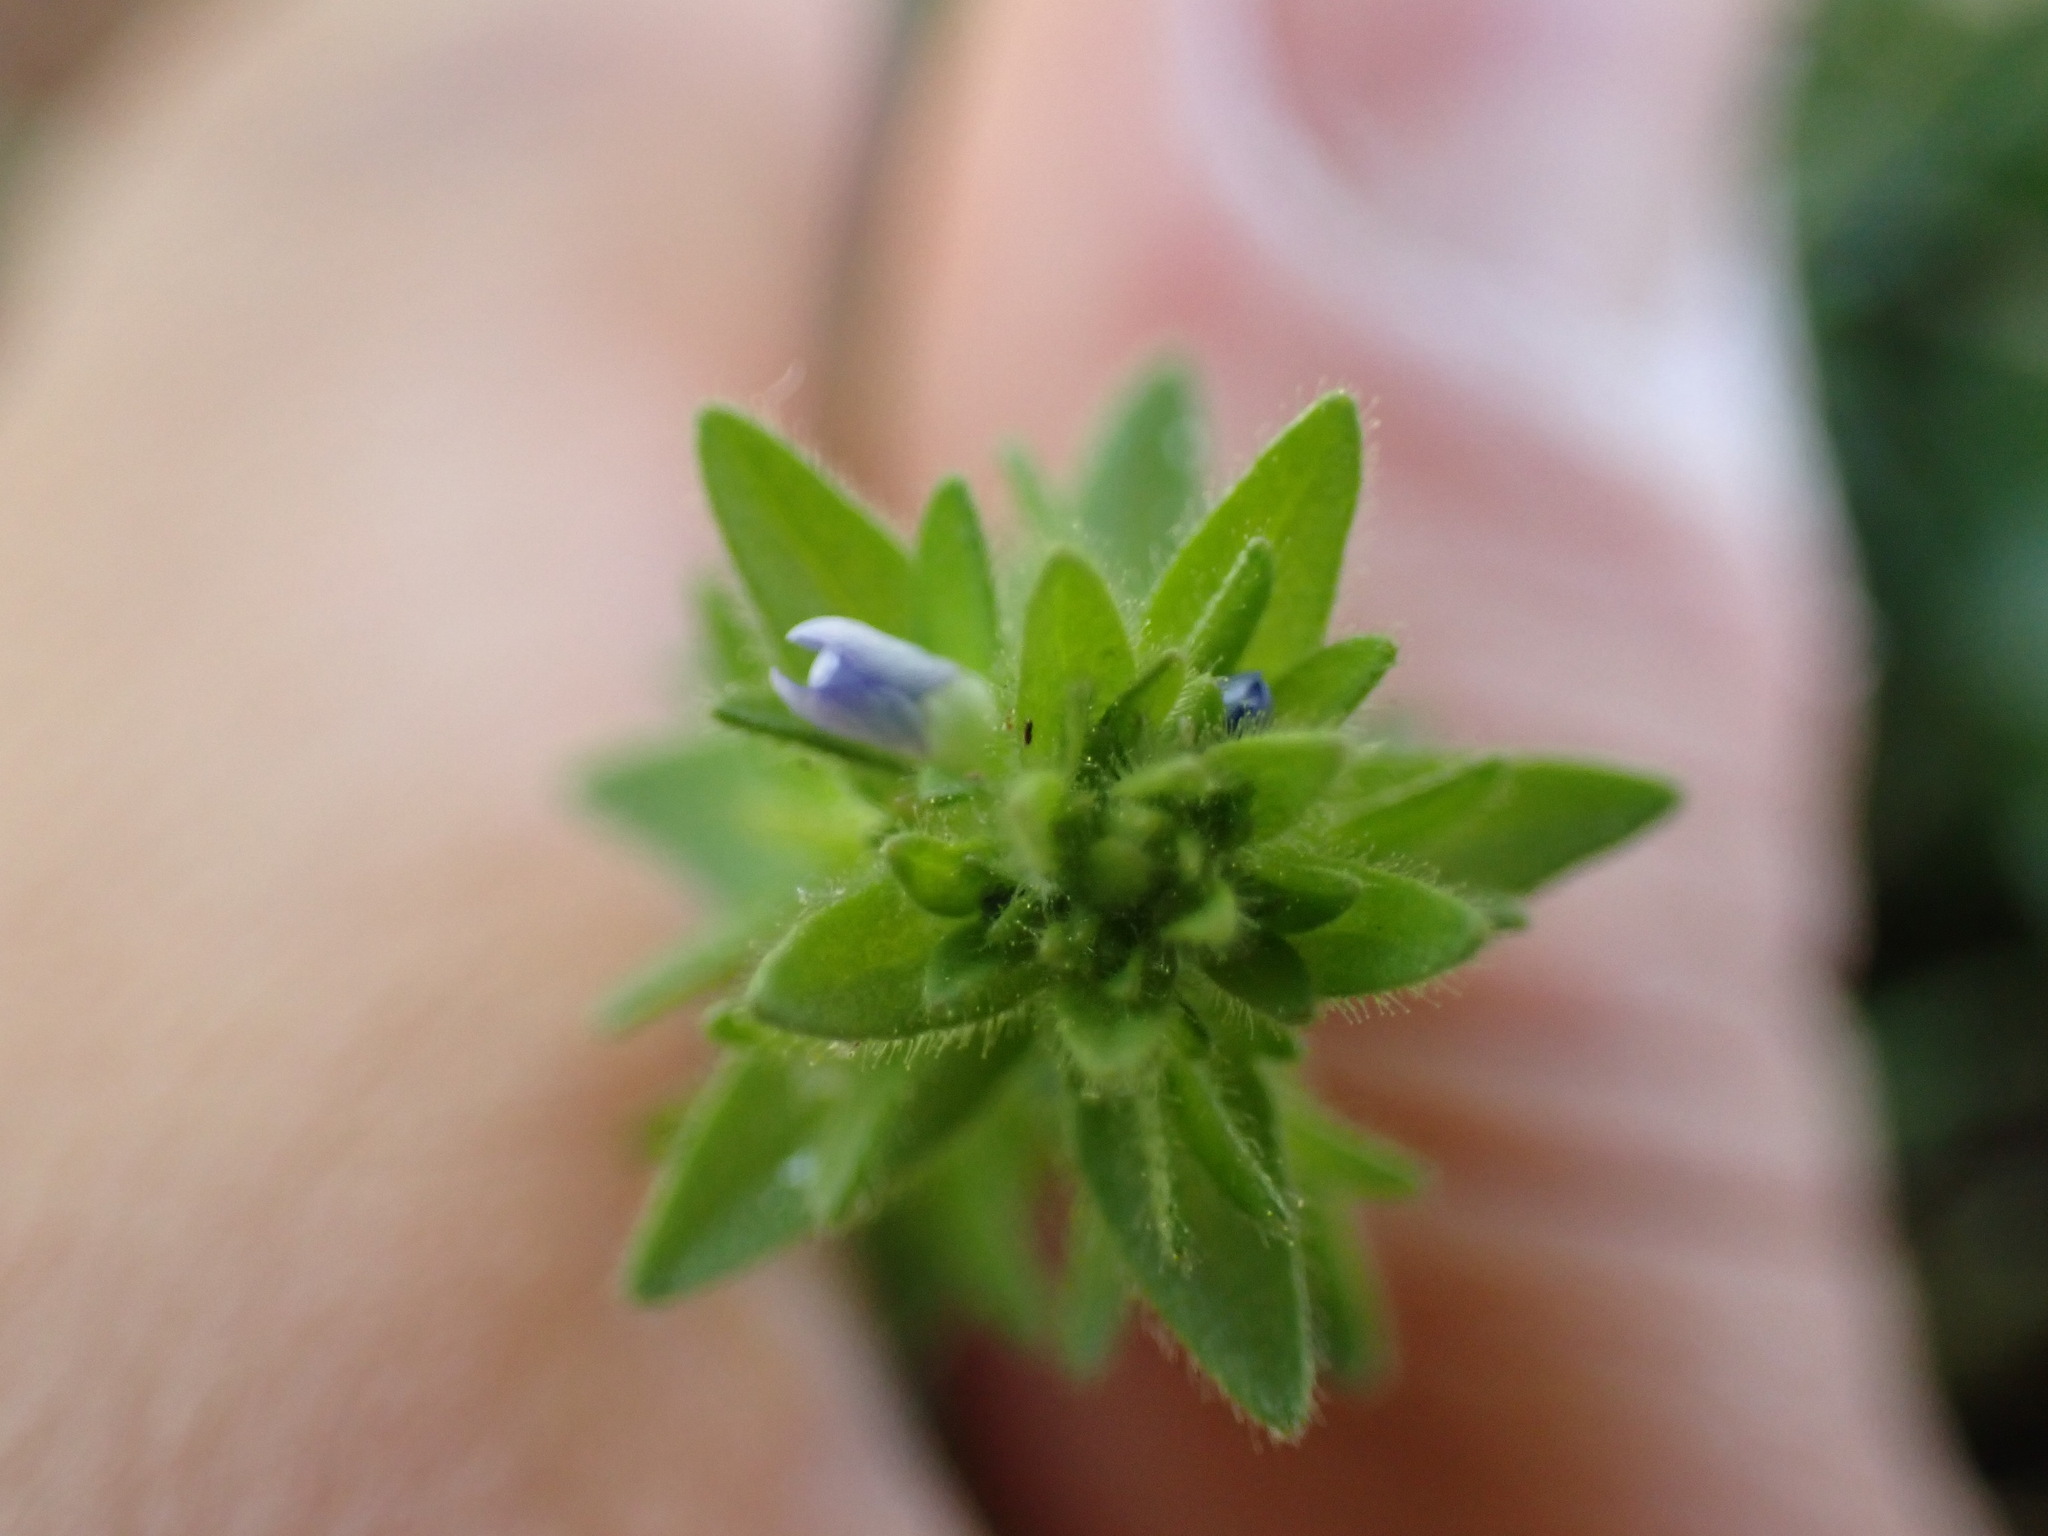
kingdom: Plantae
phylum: Tracheophyta
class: Magnoliopsida
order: Lamiales
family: Plantaginaceae
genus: Veronica
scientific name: Veronica arvensis
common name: Corn speedwell
